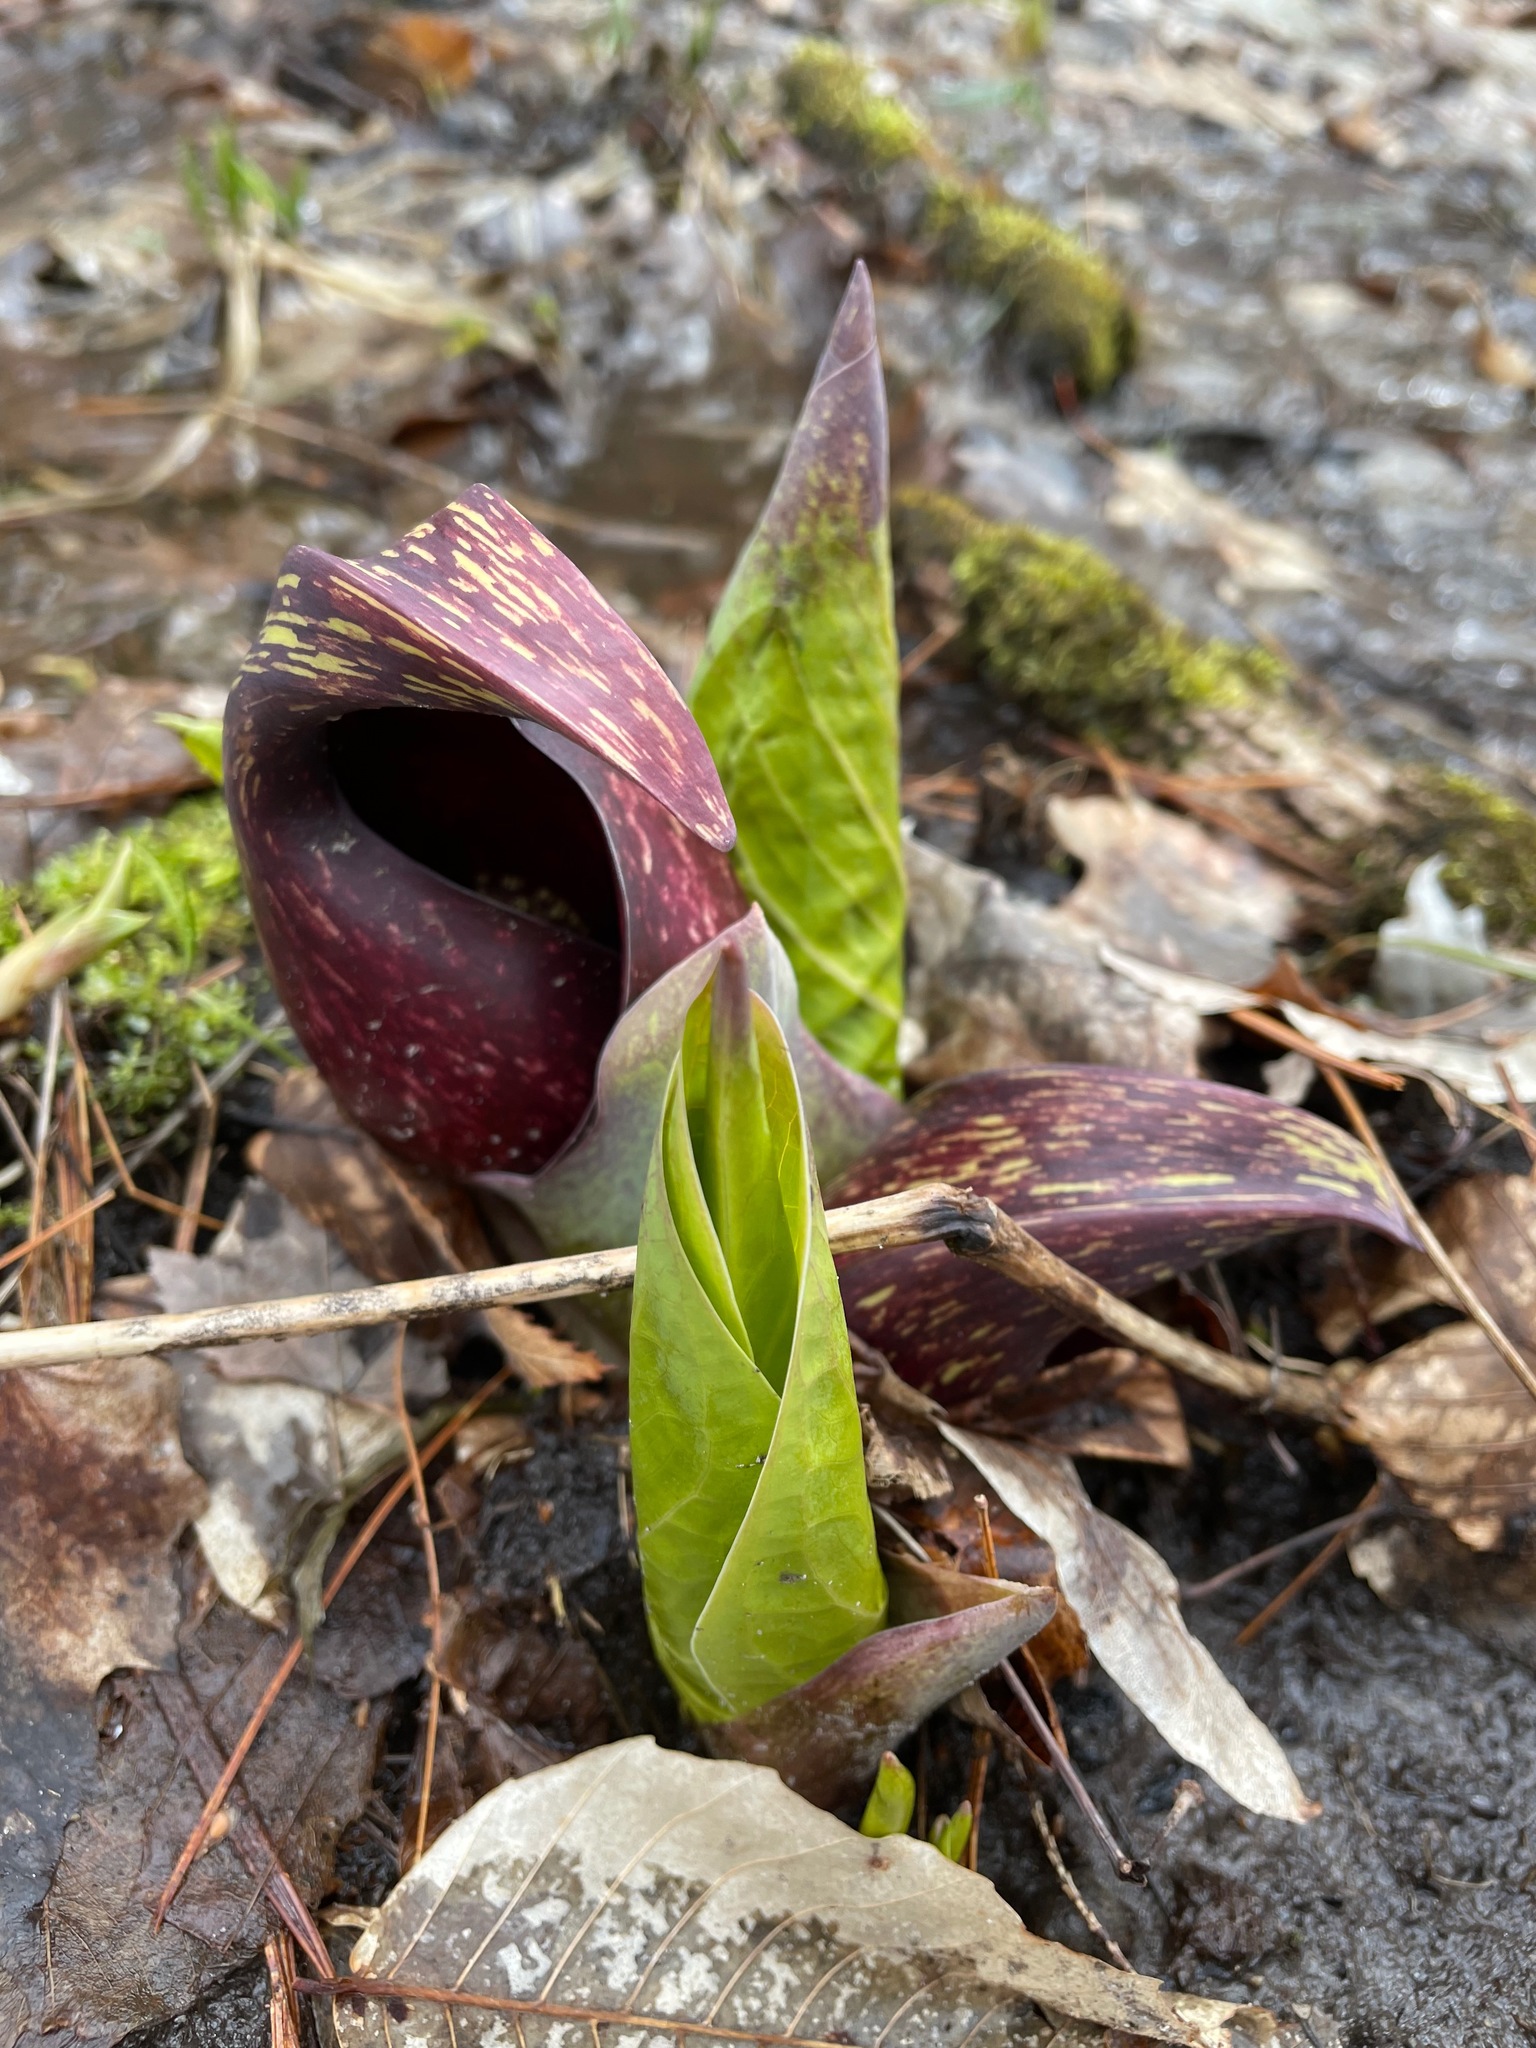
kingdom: Plantae
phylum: Tracheophyta
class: Liliopsida
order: Alismatales
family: Araceae
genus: Symplocarpus
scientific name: Symplocarpus foetidus
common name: Eastern skunk cabbage
